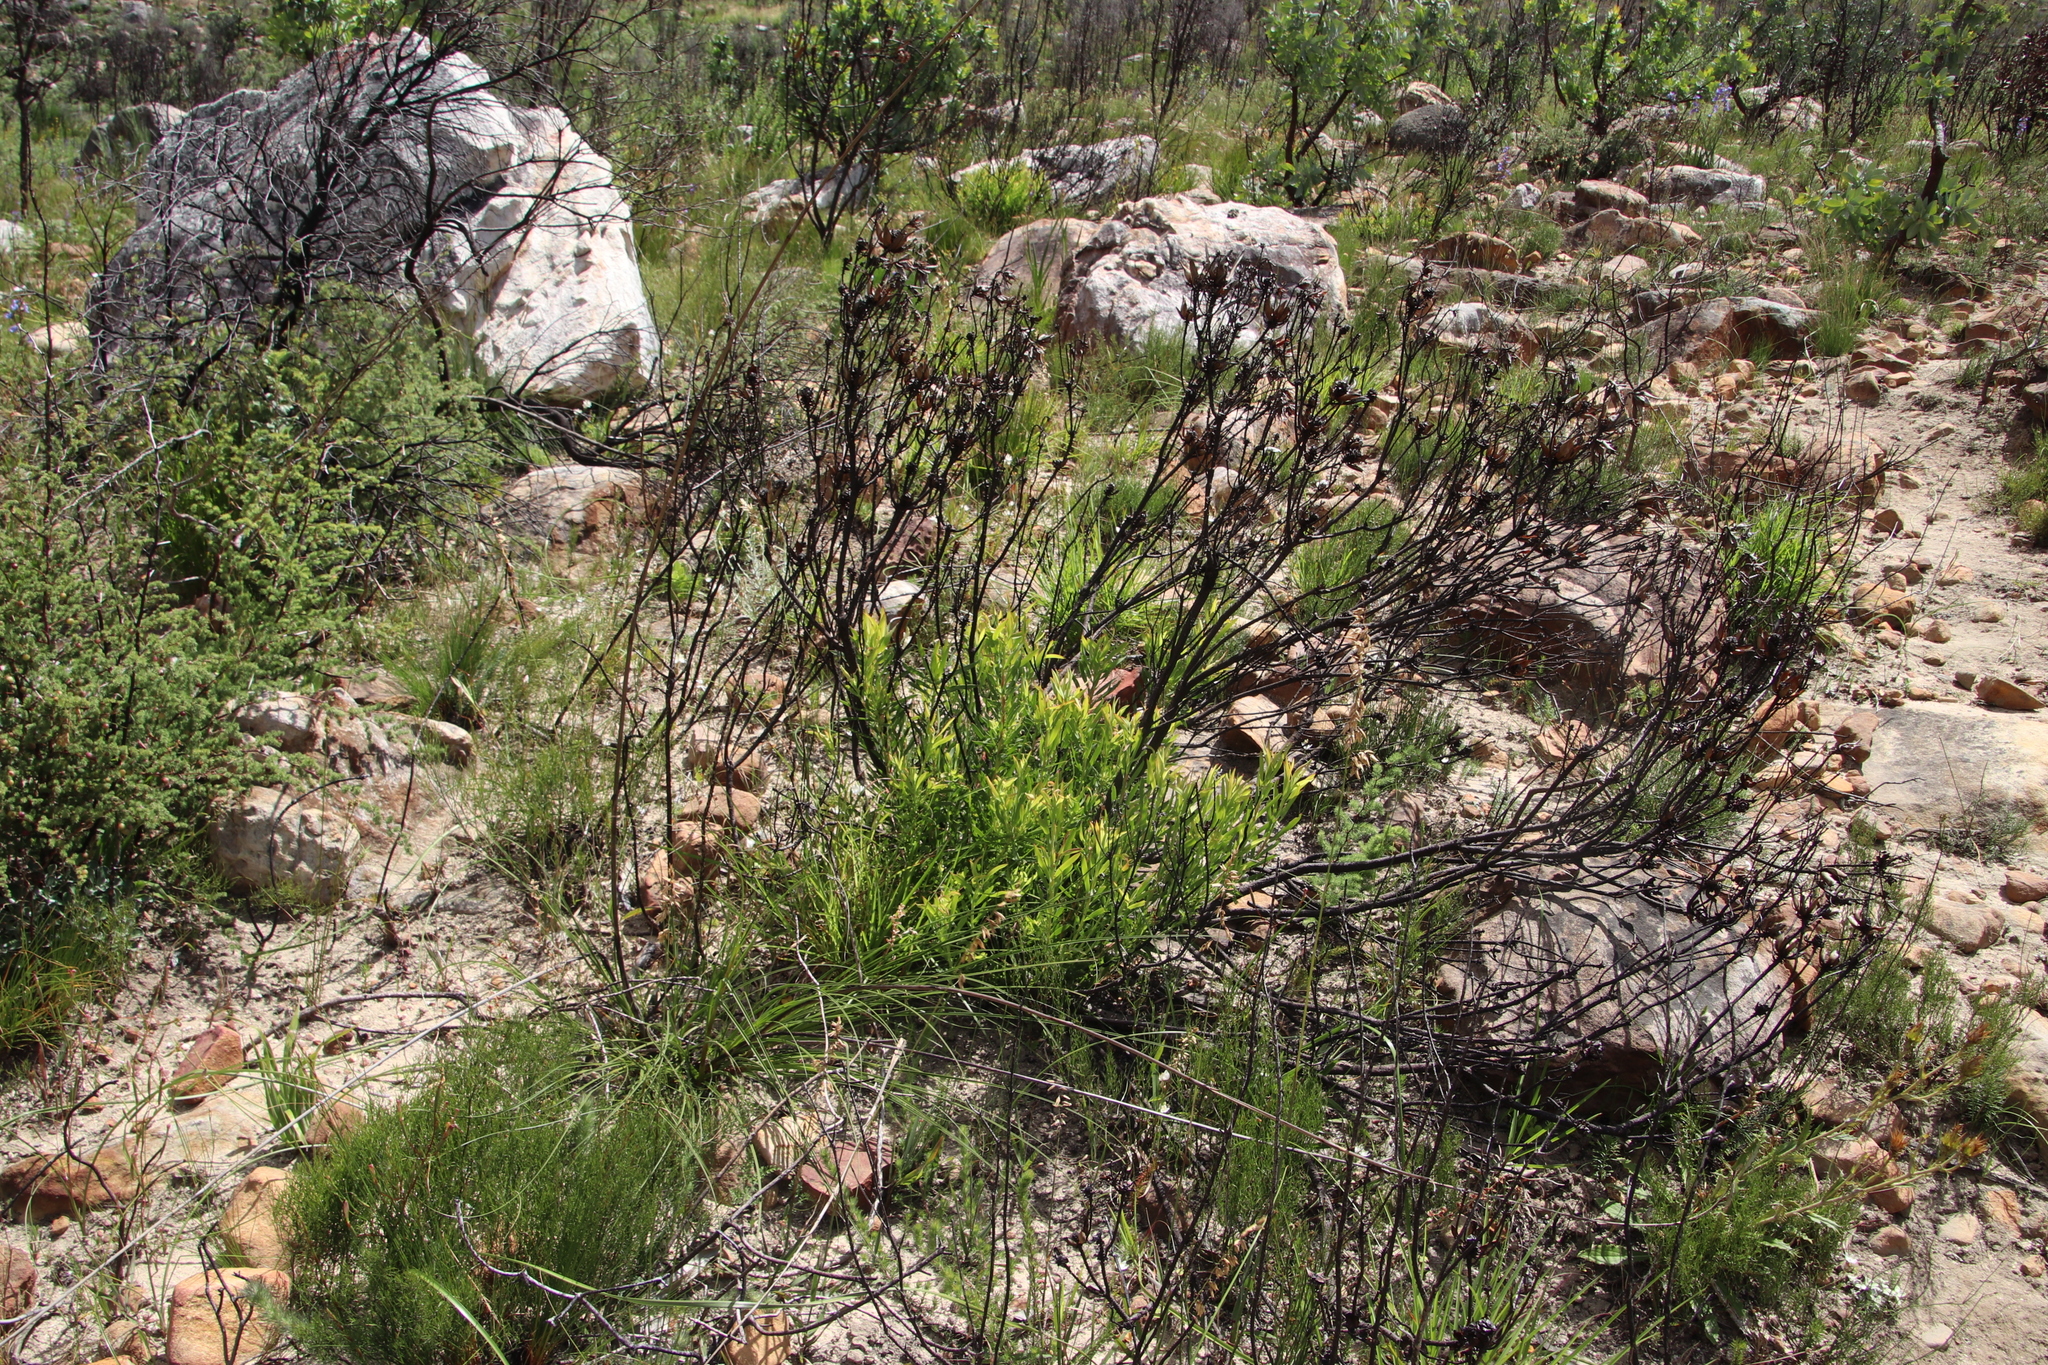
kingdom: Plantae
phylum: Tracheophyta
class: Magnoliopsida
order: Proteales
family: Proteaceae
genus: Leucadendron
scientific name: Leucadendron salignum
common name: Common sunshine conebush
